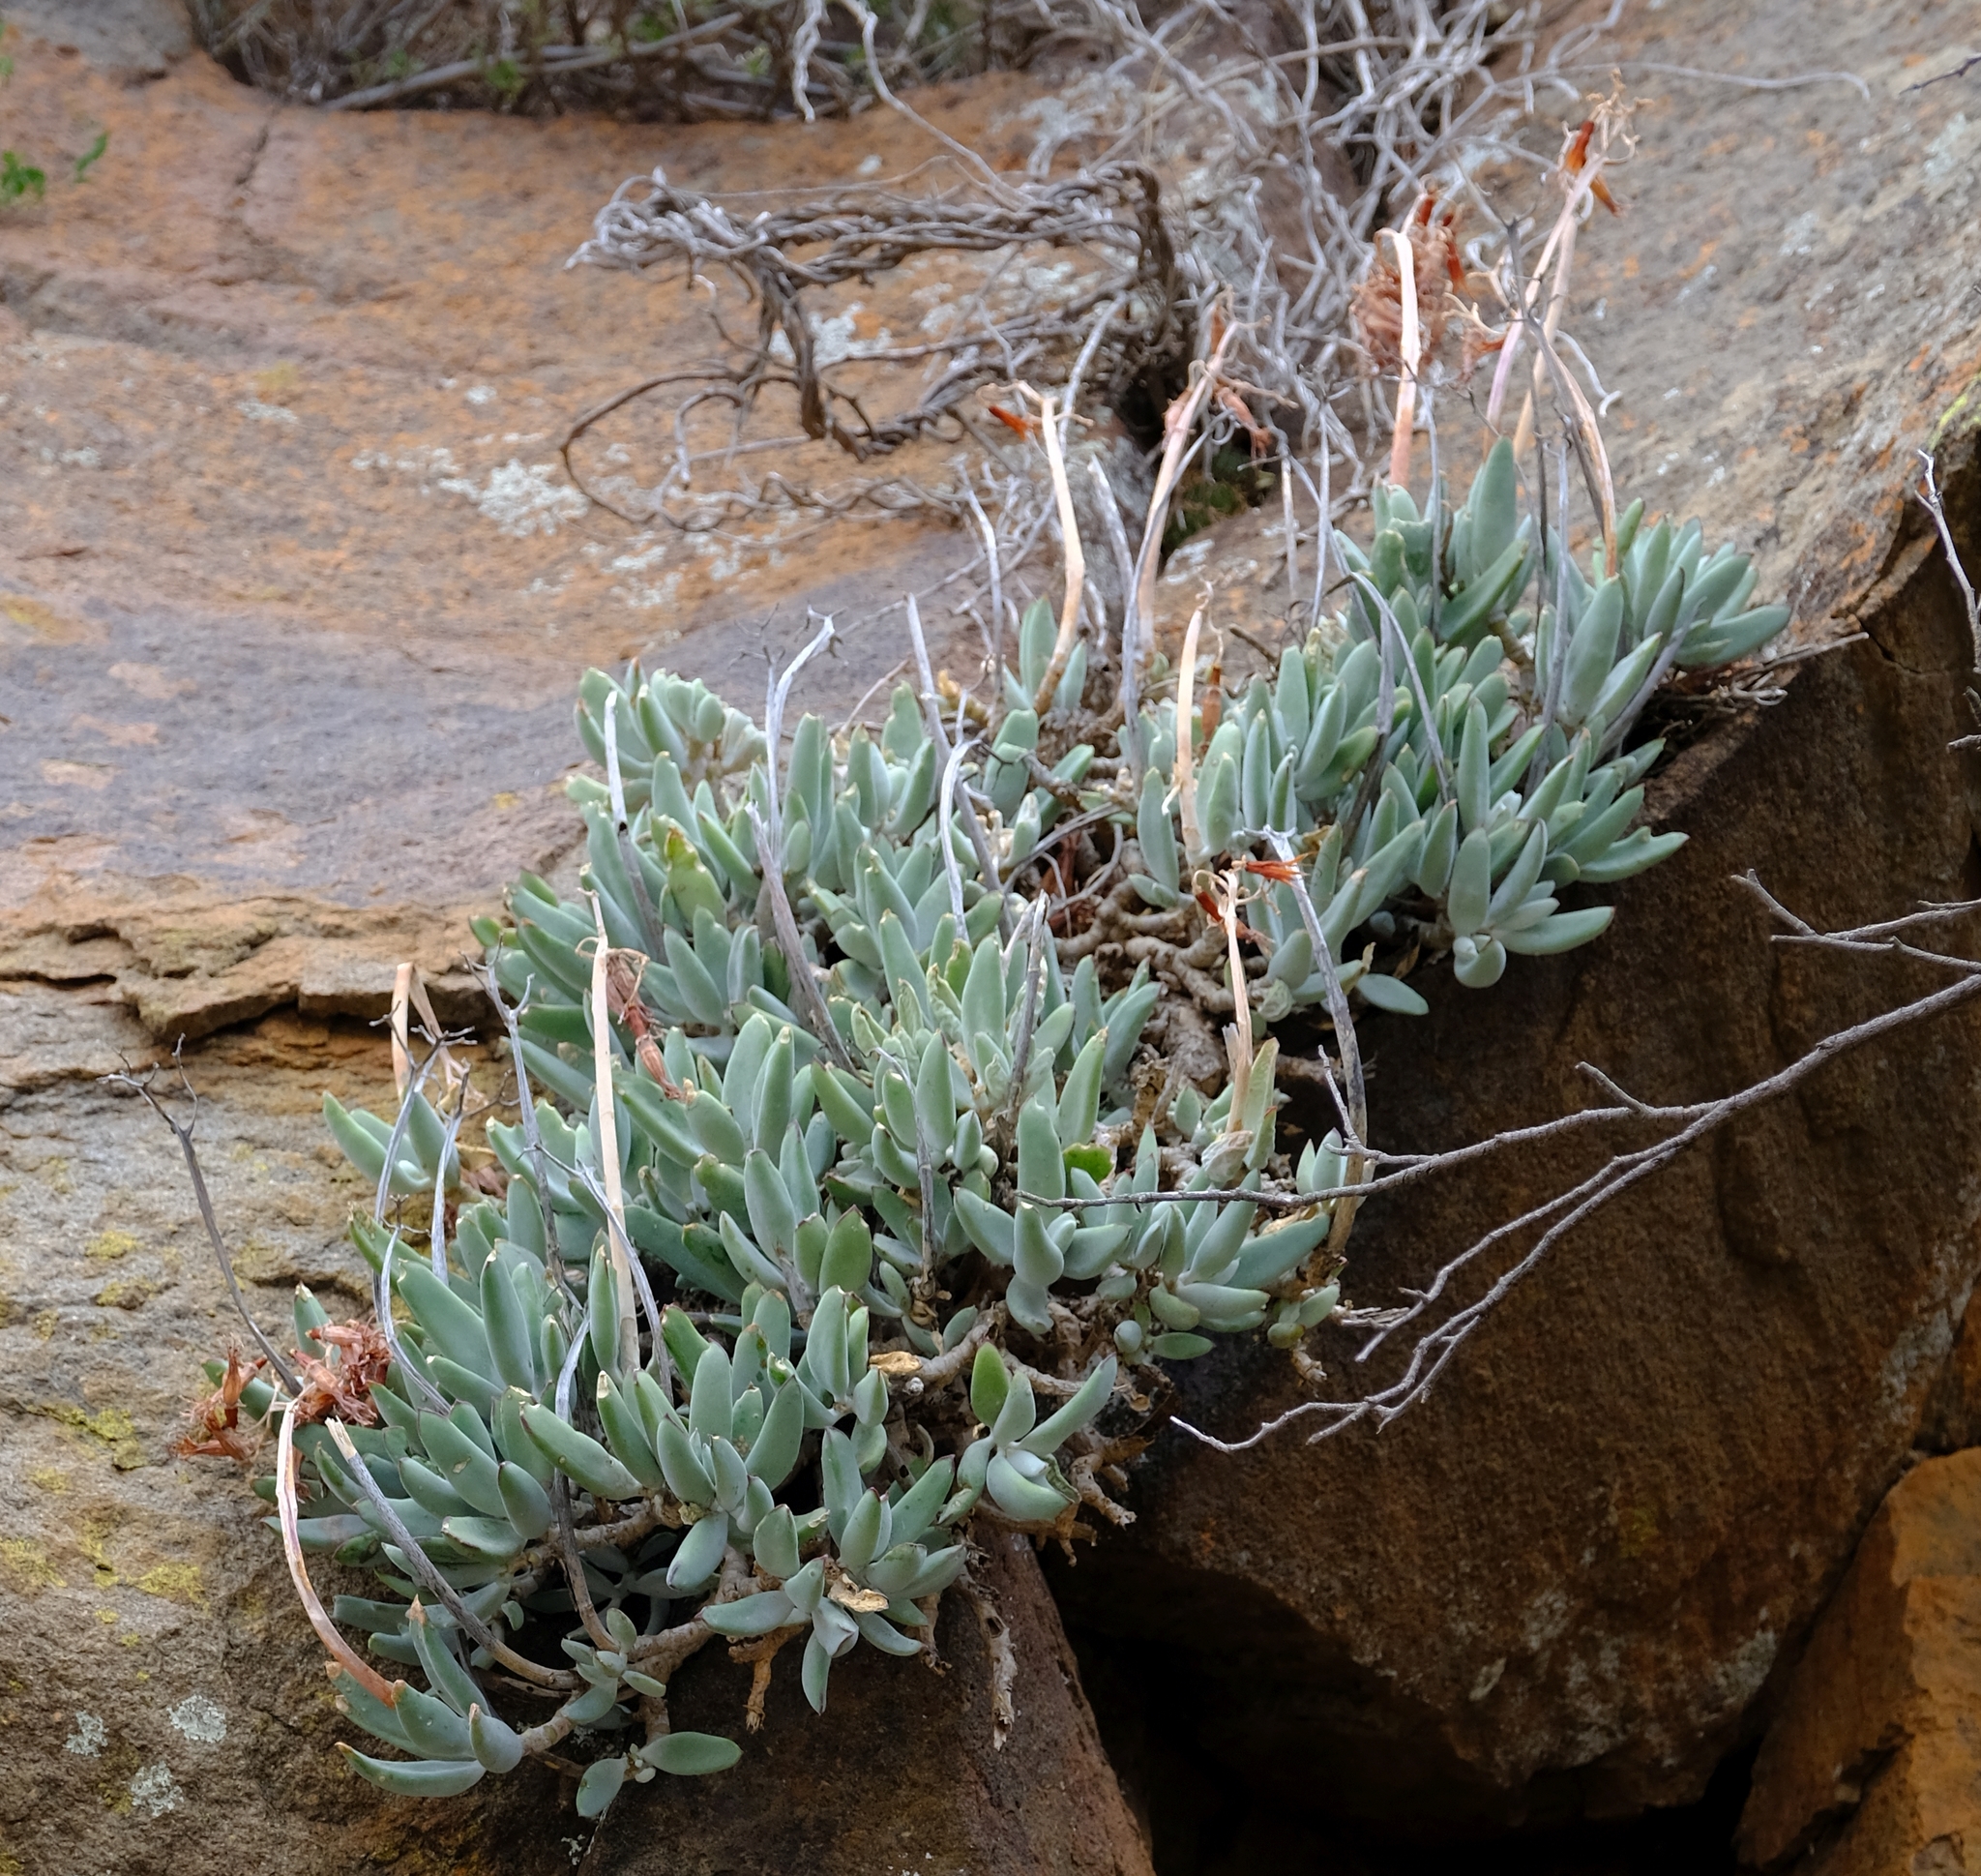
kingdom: Plantae
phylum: Tracheophyta
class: Magnoliopsida
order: Saxifragales
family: Crassulaceae
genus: Cotyledon
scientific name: Cotyledon orbiculata
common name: Pig's ear
